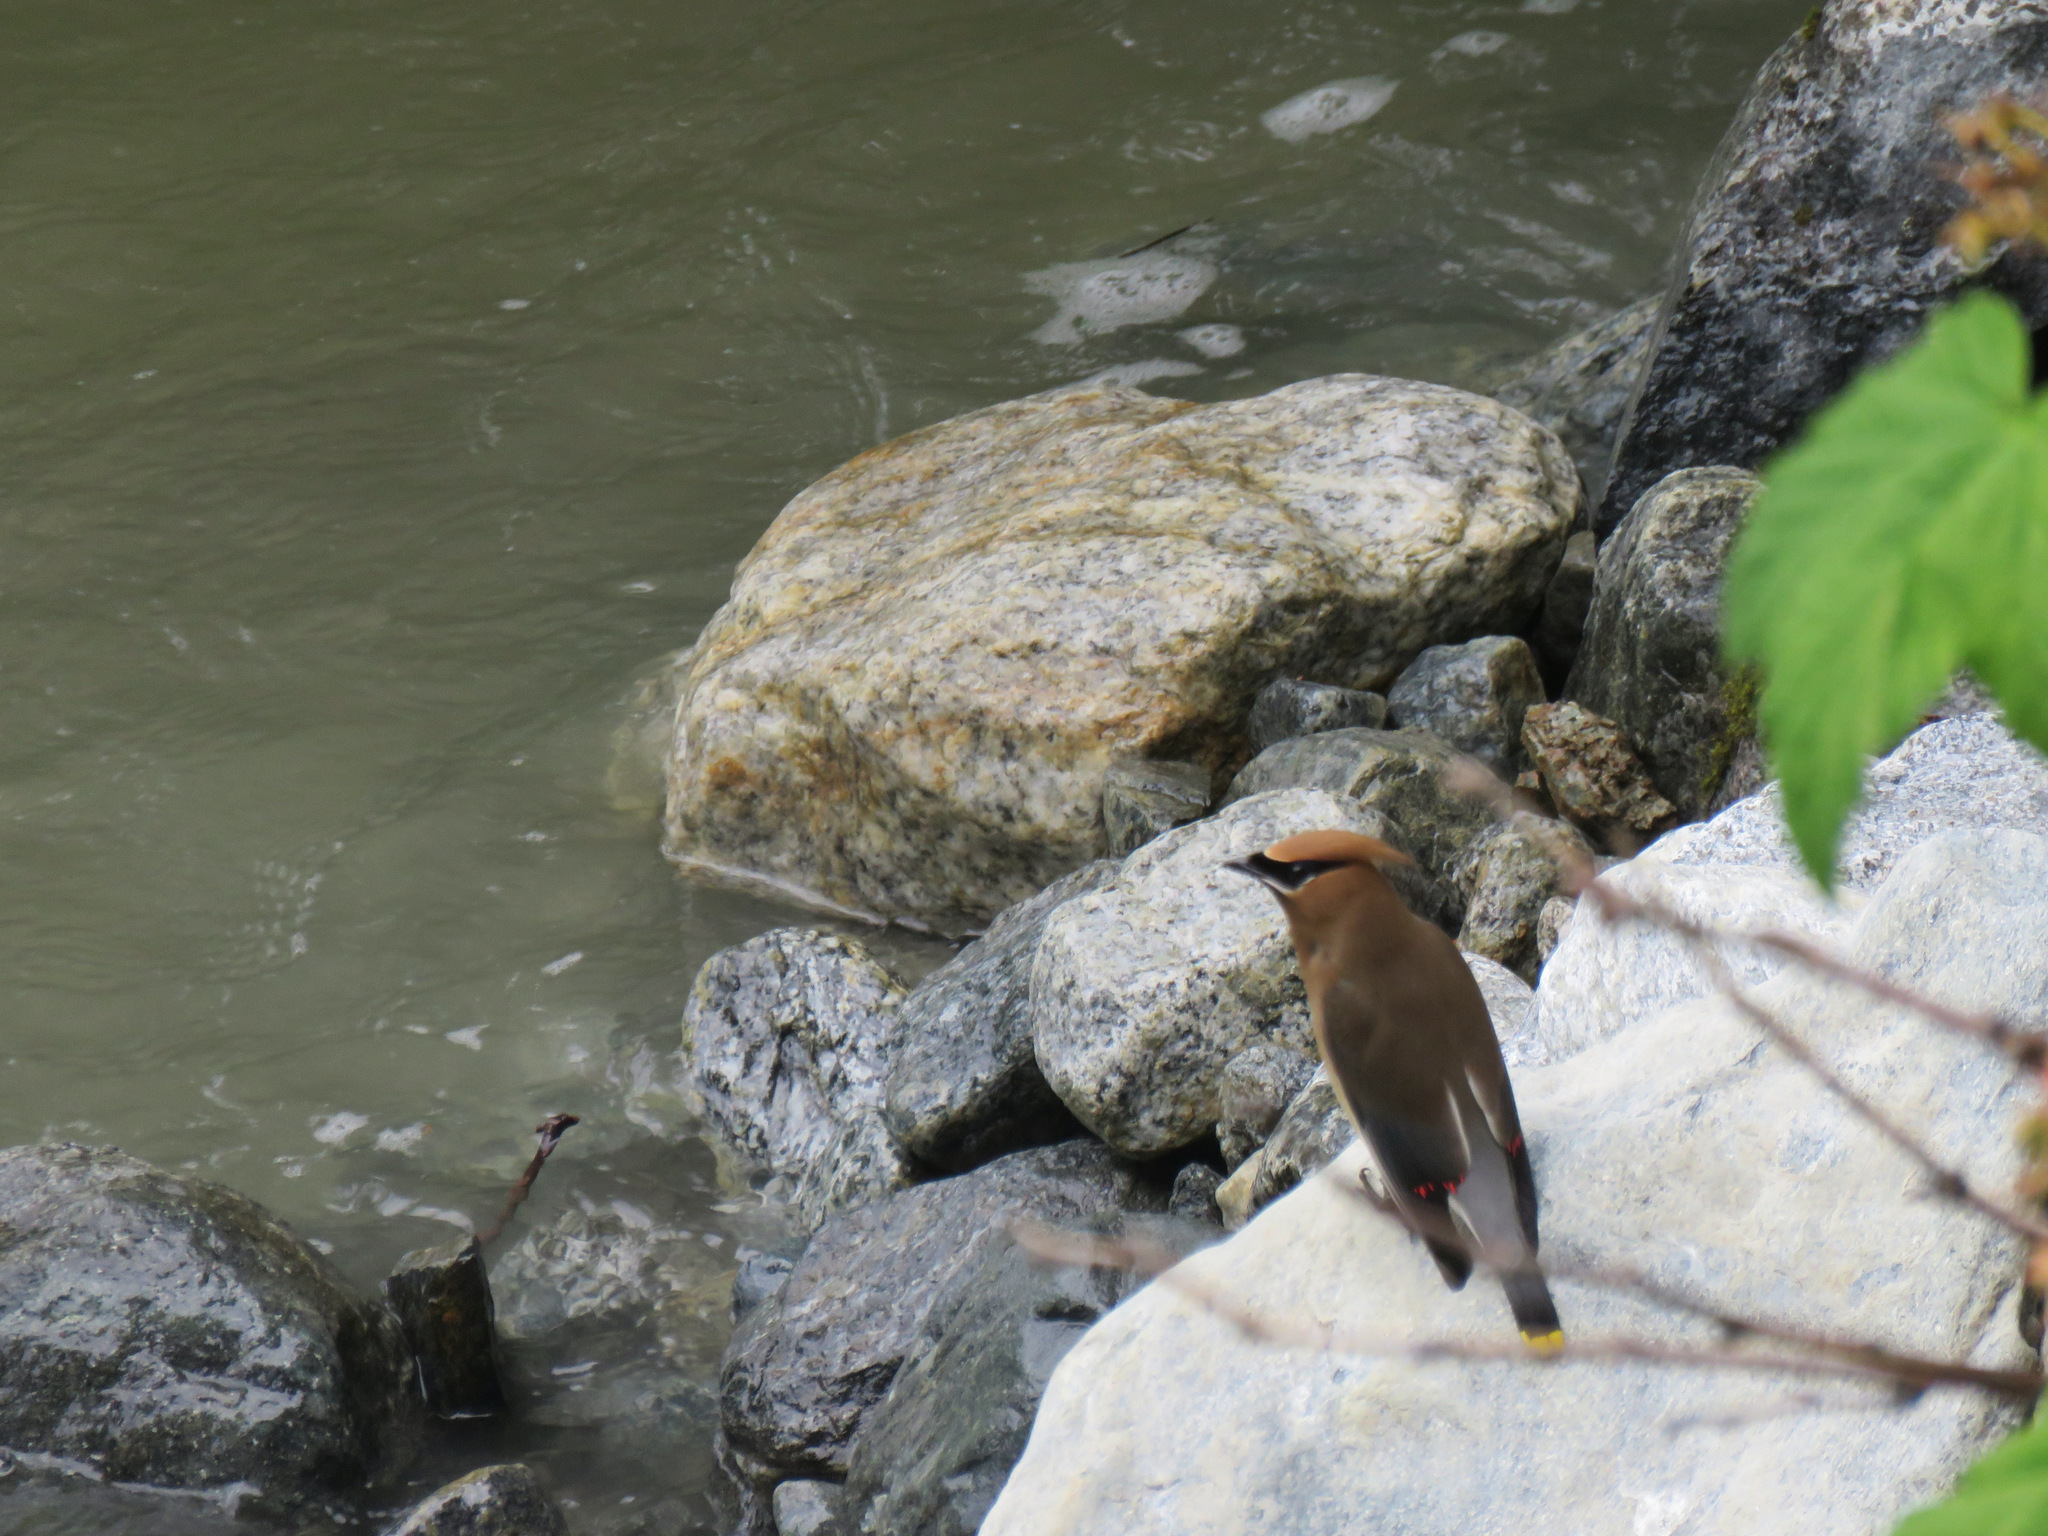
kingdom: Animalia
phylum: Chordata
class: Aves
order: Passeriformes
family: Bombycillidae
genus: Bombycilla
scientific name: Bombycilla cedrorum
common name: Cedar waxwing
